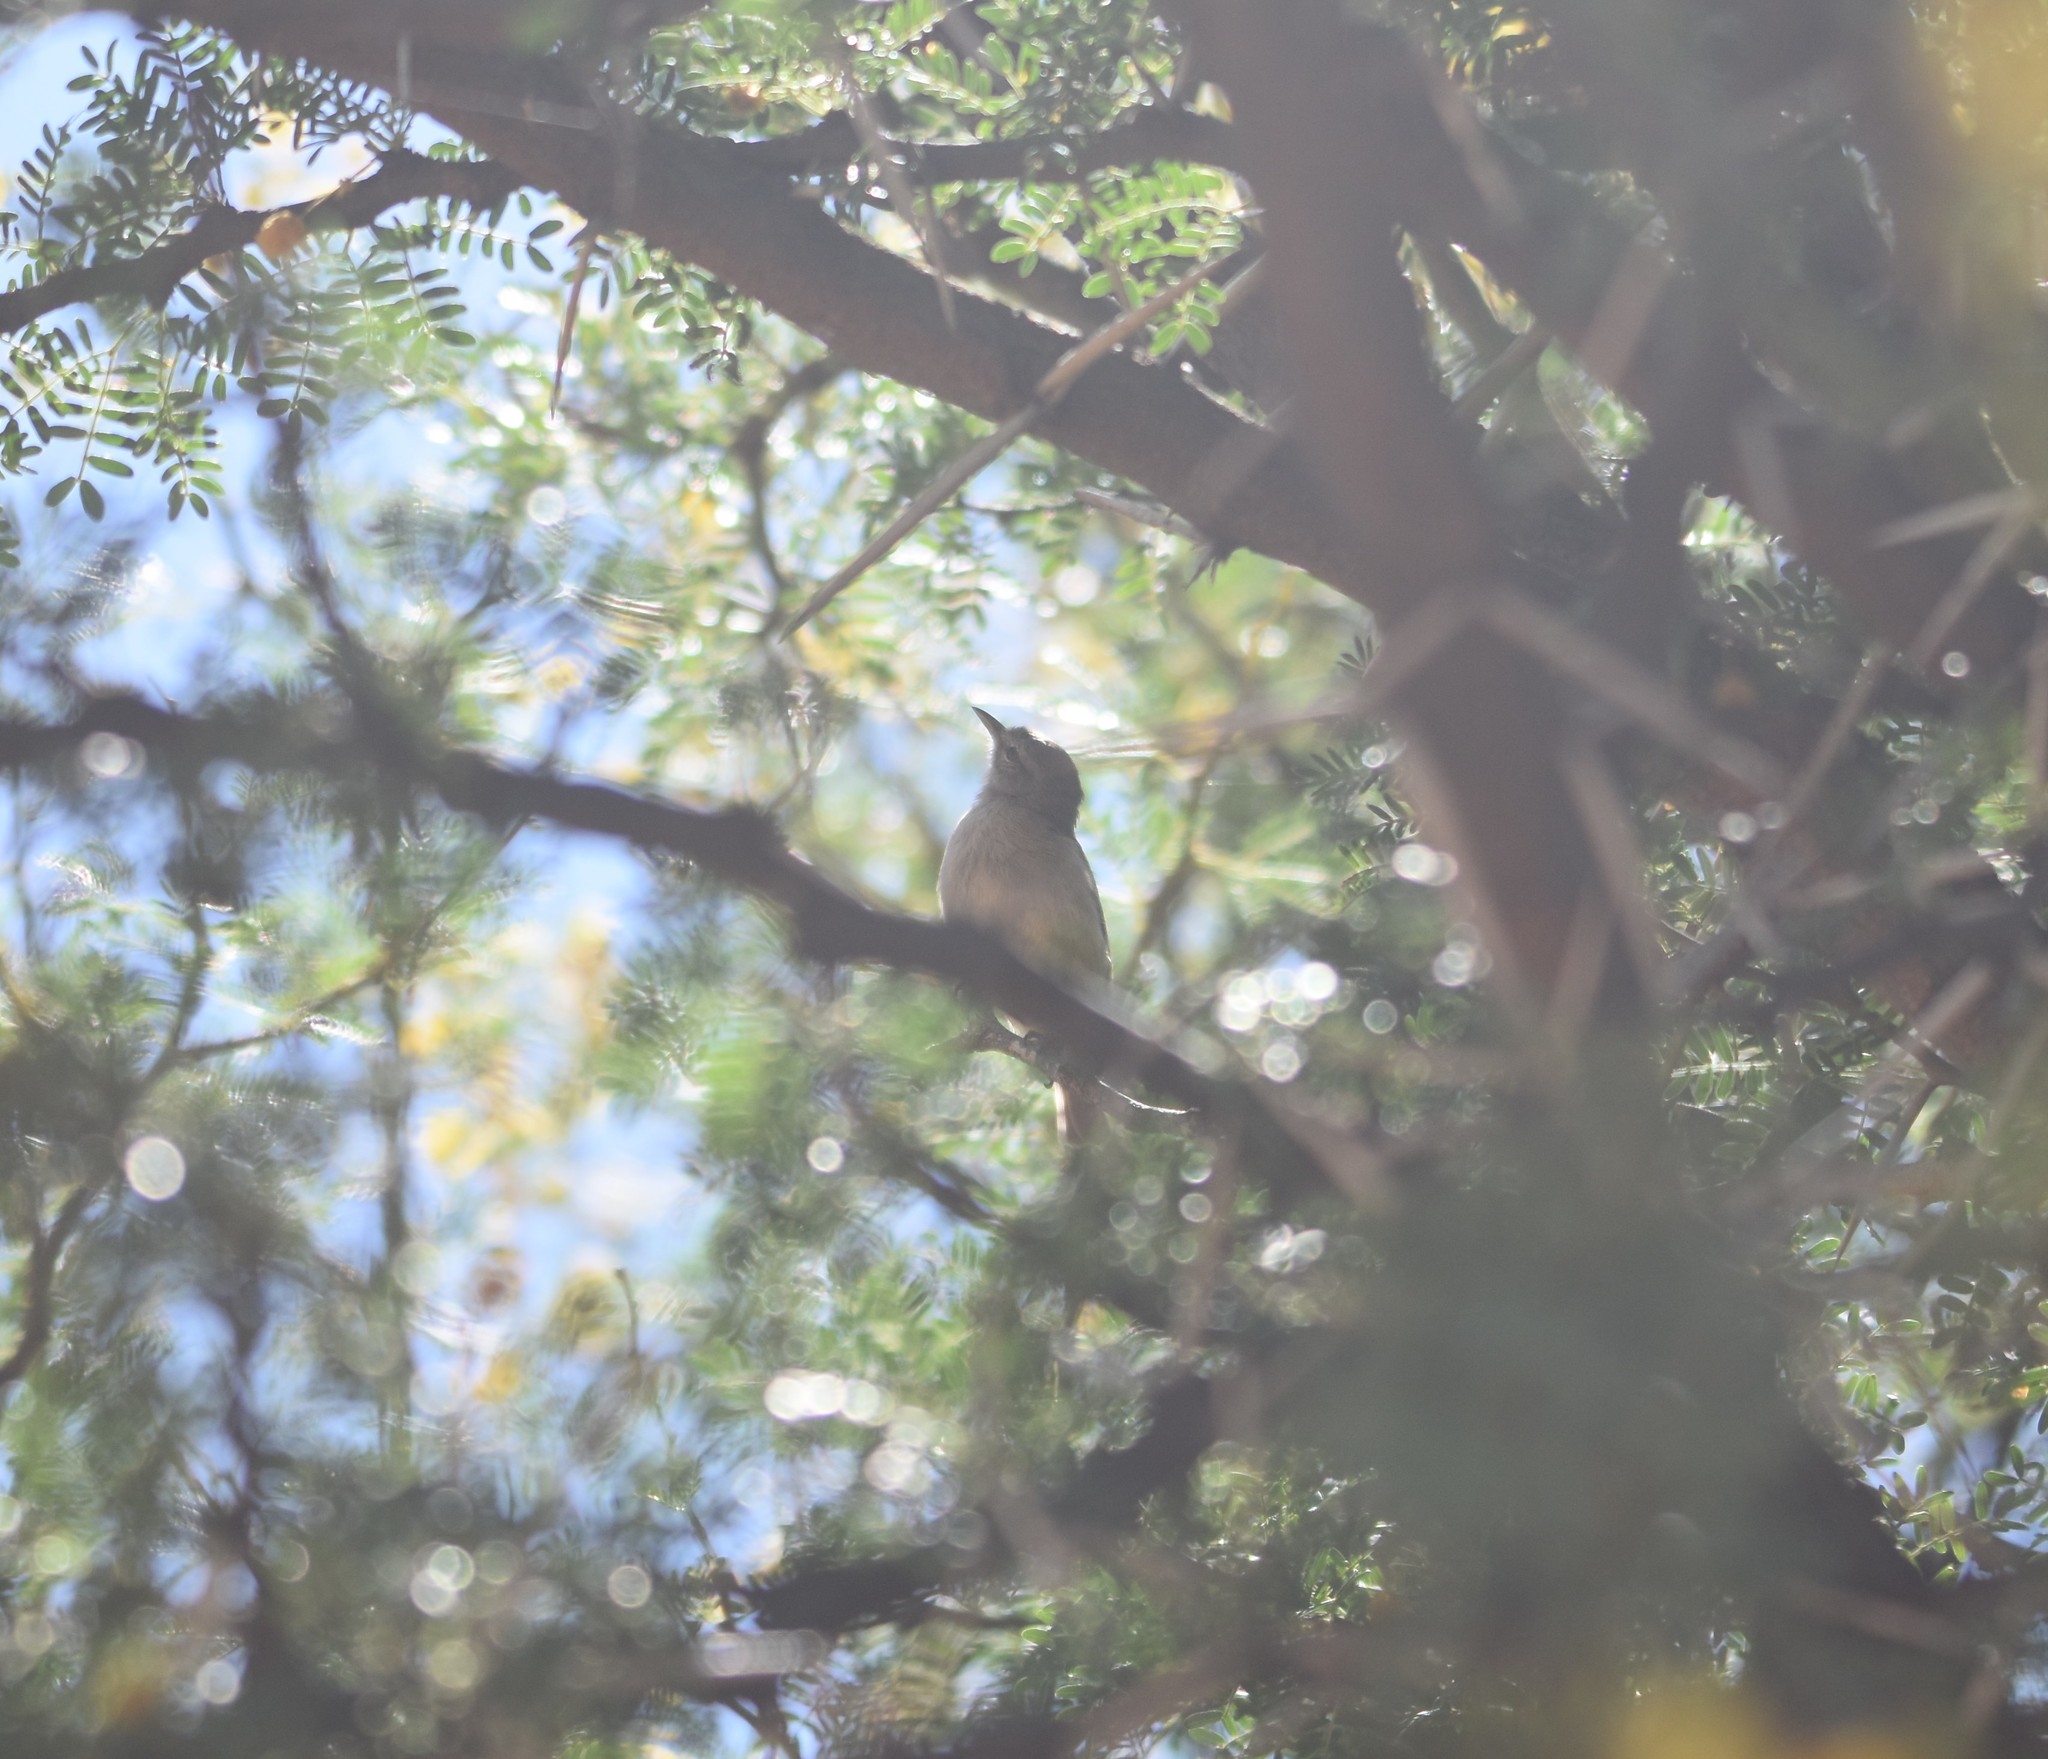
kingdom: Animalia
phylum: Chordata
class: Aves
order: Passeriformes
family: Cisticolidae
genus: Eremomela
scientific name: Eremomela icteropygialis
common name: Yellow-bellied eremomela
